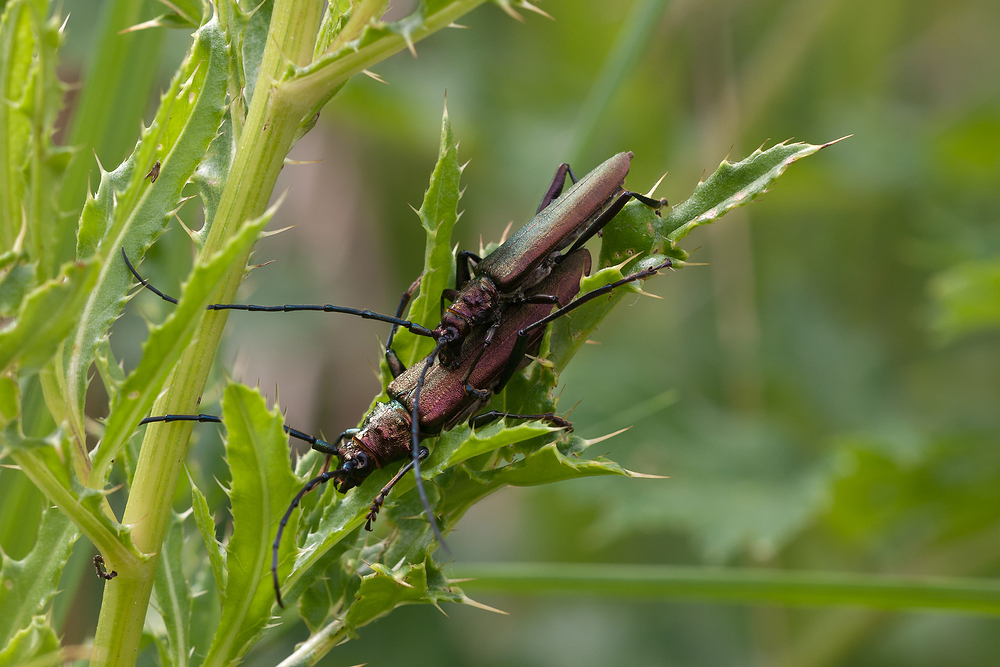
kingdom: Animalia
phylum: Arthropoda
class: Insecta
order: Coleoptera
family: Cerambycidae
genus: Aromia
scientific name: Aromia moschata
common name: Musk beetle
